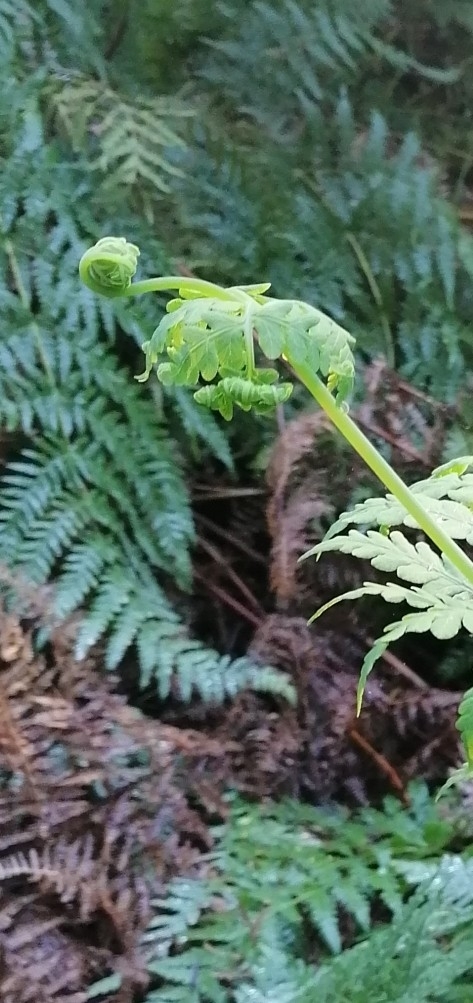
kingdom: Plantae
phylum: Tracheophyta
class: Polypodiopsida
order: Polypodiales
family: Dennstaedtiaceae
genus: Histiopteris
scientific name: Histiopteris incisa
